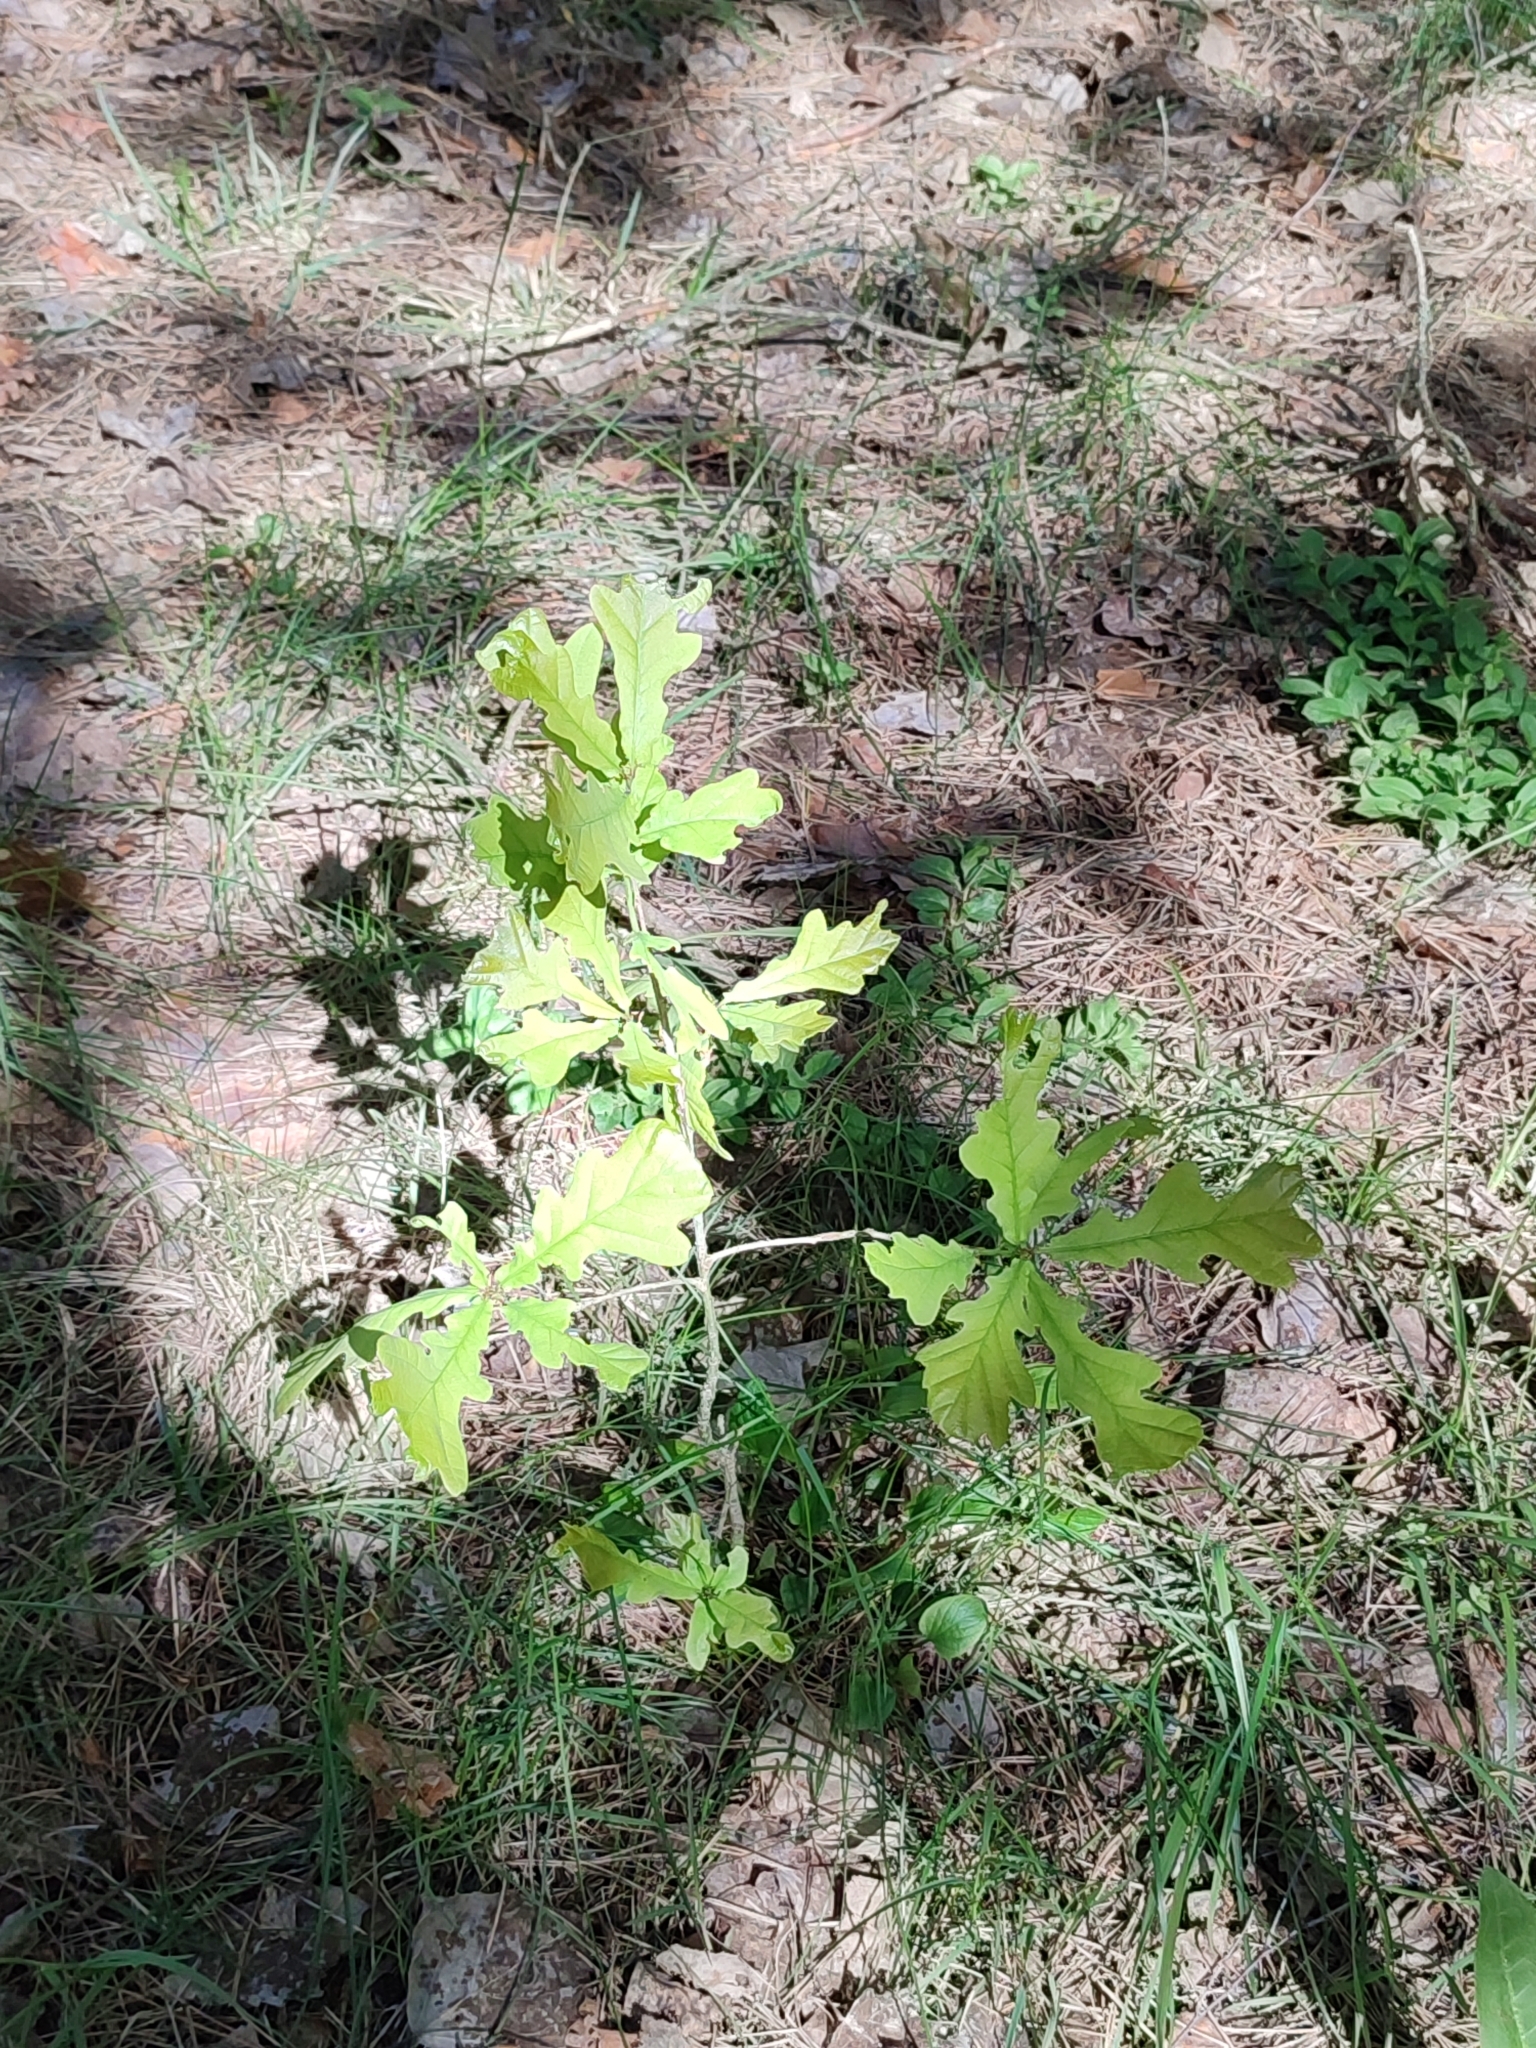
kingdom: Plantae
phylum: Tracheophyta
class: Magnoliopsida
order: Fagales
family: Fagaceae
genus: Quercus
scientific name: Quercus robur
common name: Pedunculate oak
